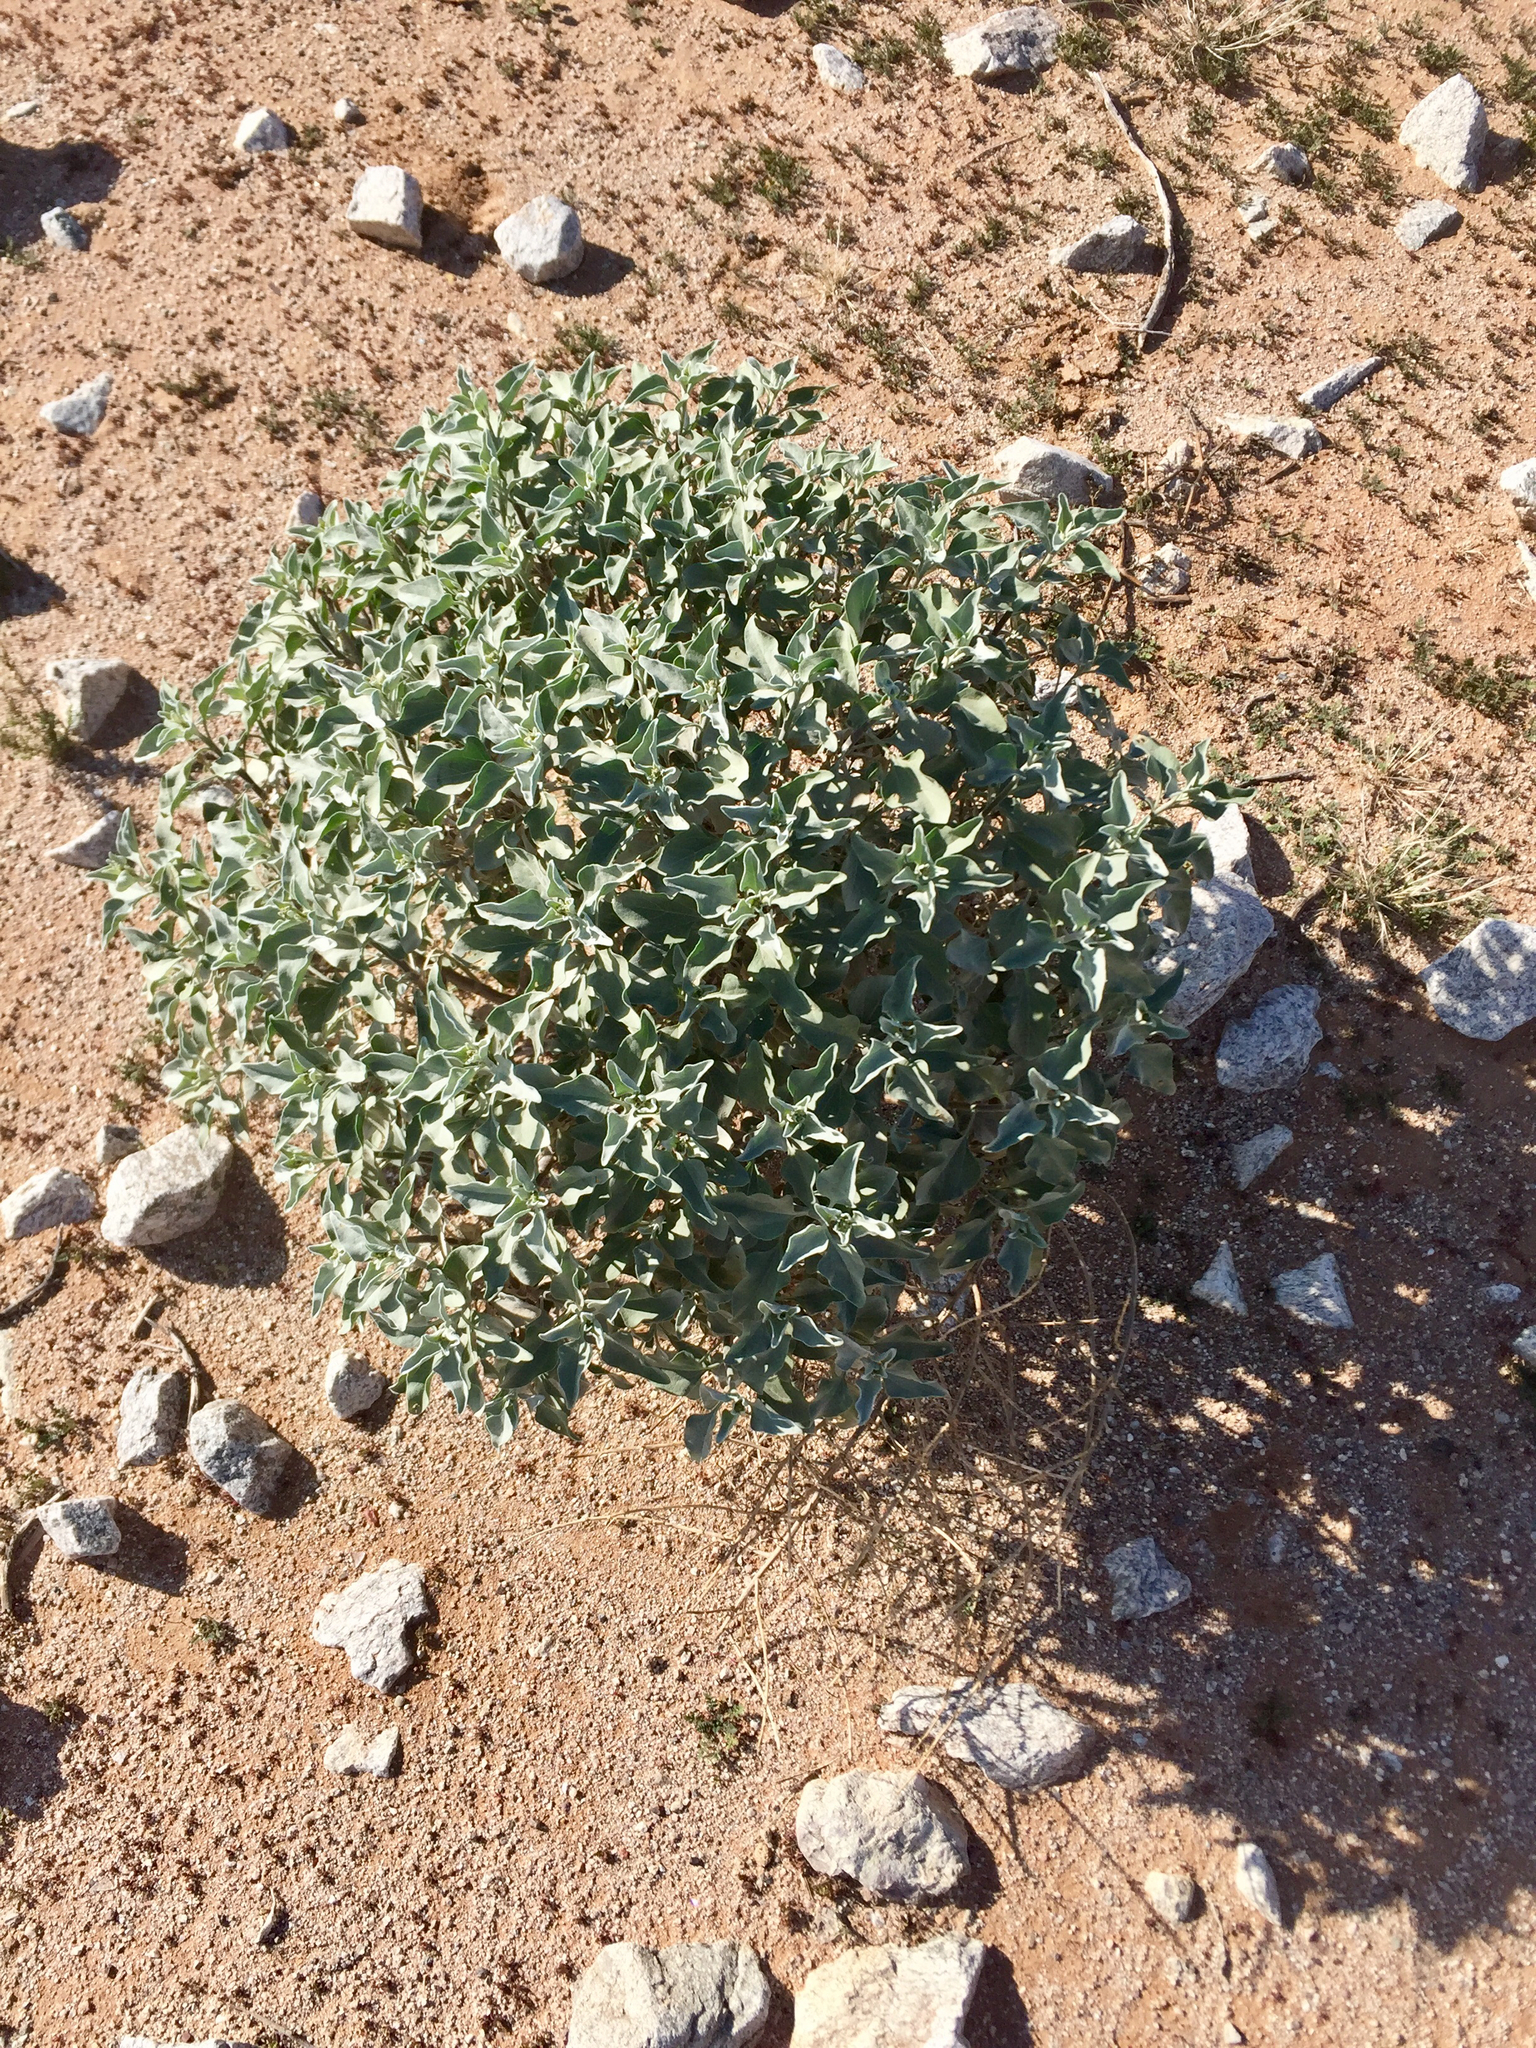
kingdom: Plantae
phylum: Tracheophyta
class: Magnoliopsida
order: Asterales
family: Asteraceae
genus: Encelia
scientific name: Encelia farinosa
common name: Brittlebush
